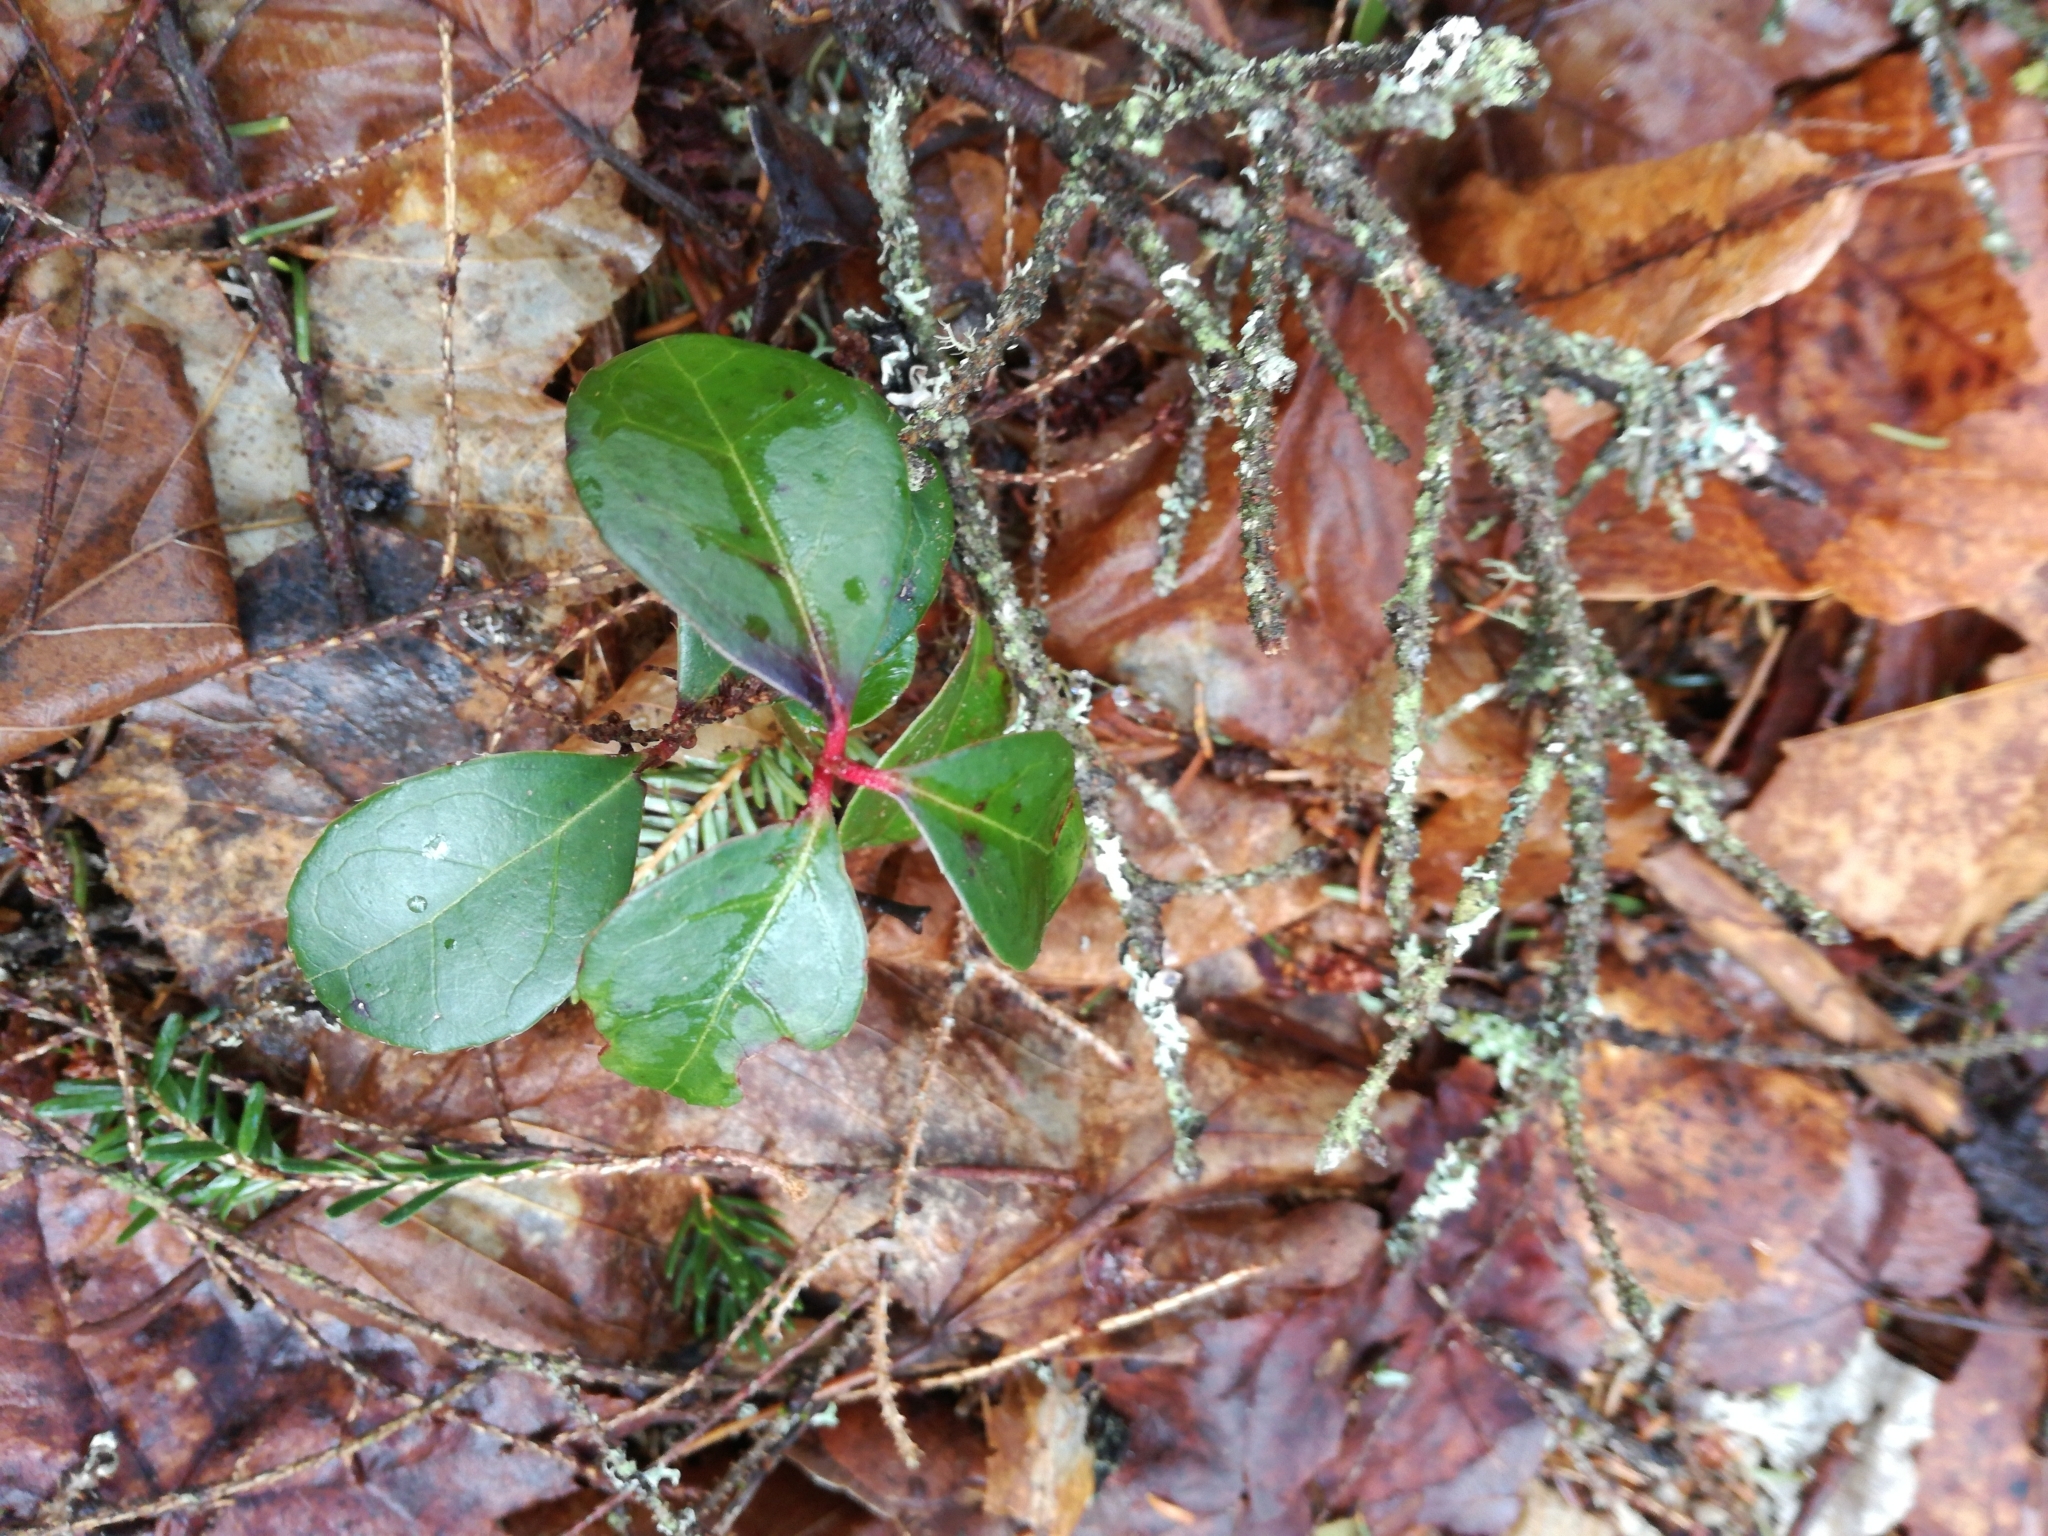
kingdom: Plantae
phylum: Tracheophyta
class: Magnoliopsida
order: Ericales
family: Ericaceae
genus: Gaultheria
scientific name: Gaultheria procumbens
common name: Checkerberry
